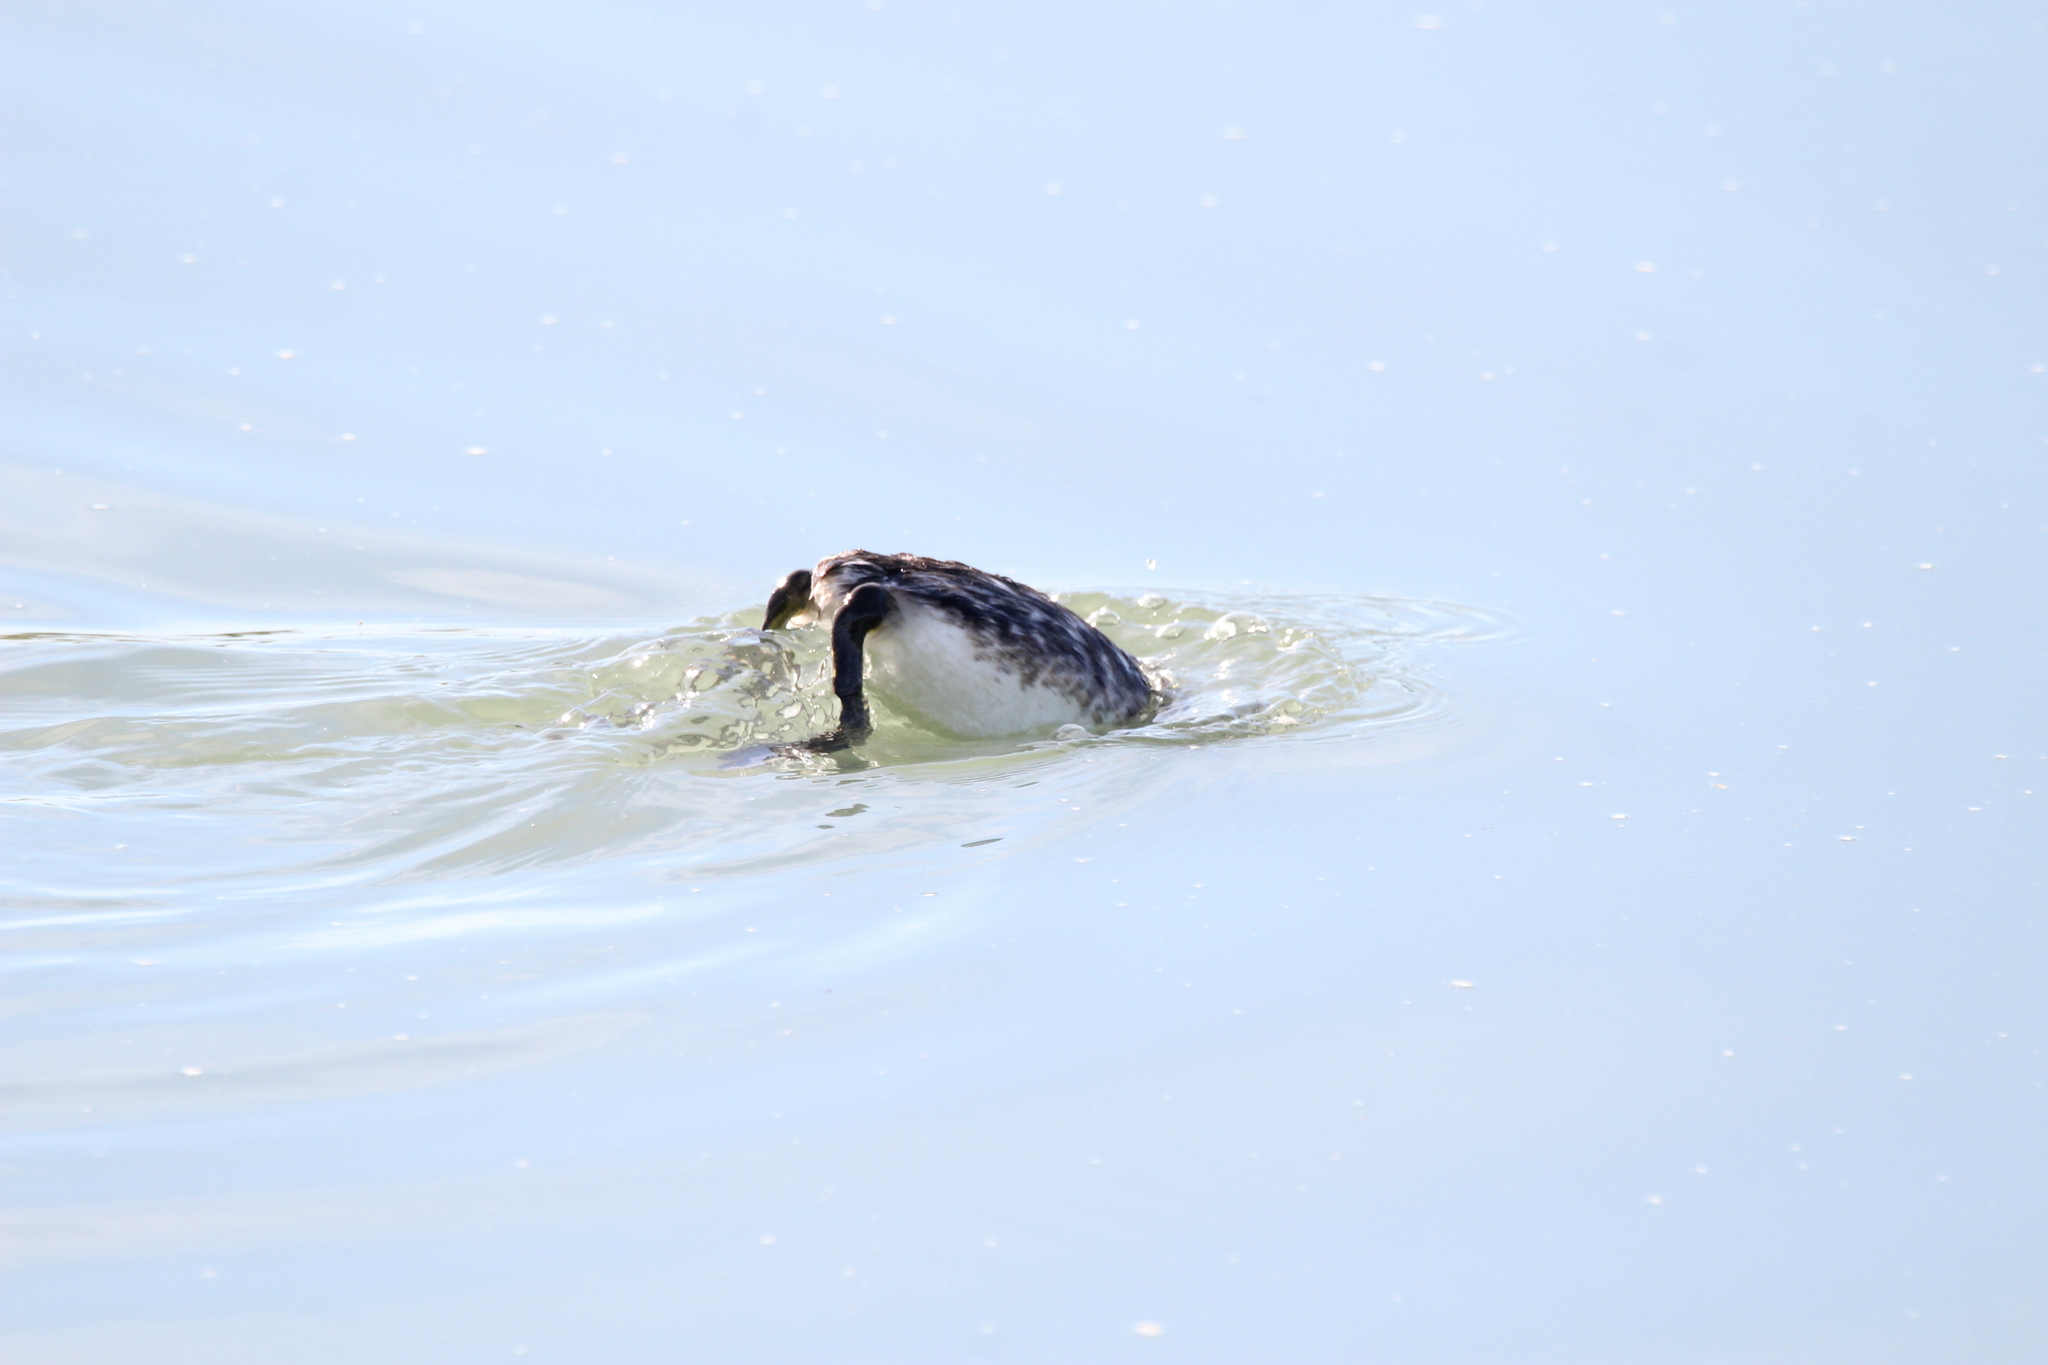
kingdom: Animalia
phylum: Chordata
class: Aves
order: Podicipediformes
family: Podicipedidae
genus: Aechmophorus
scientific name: Aechmophorus occidentalis
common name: Western grebe
